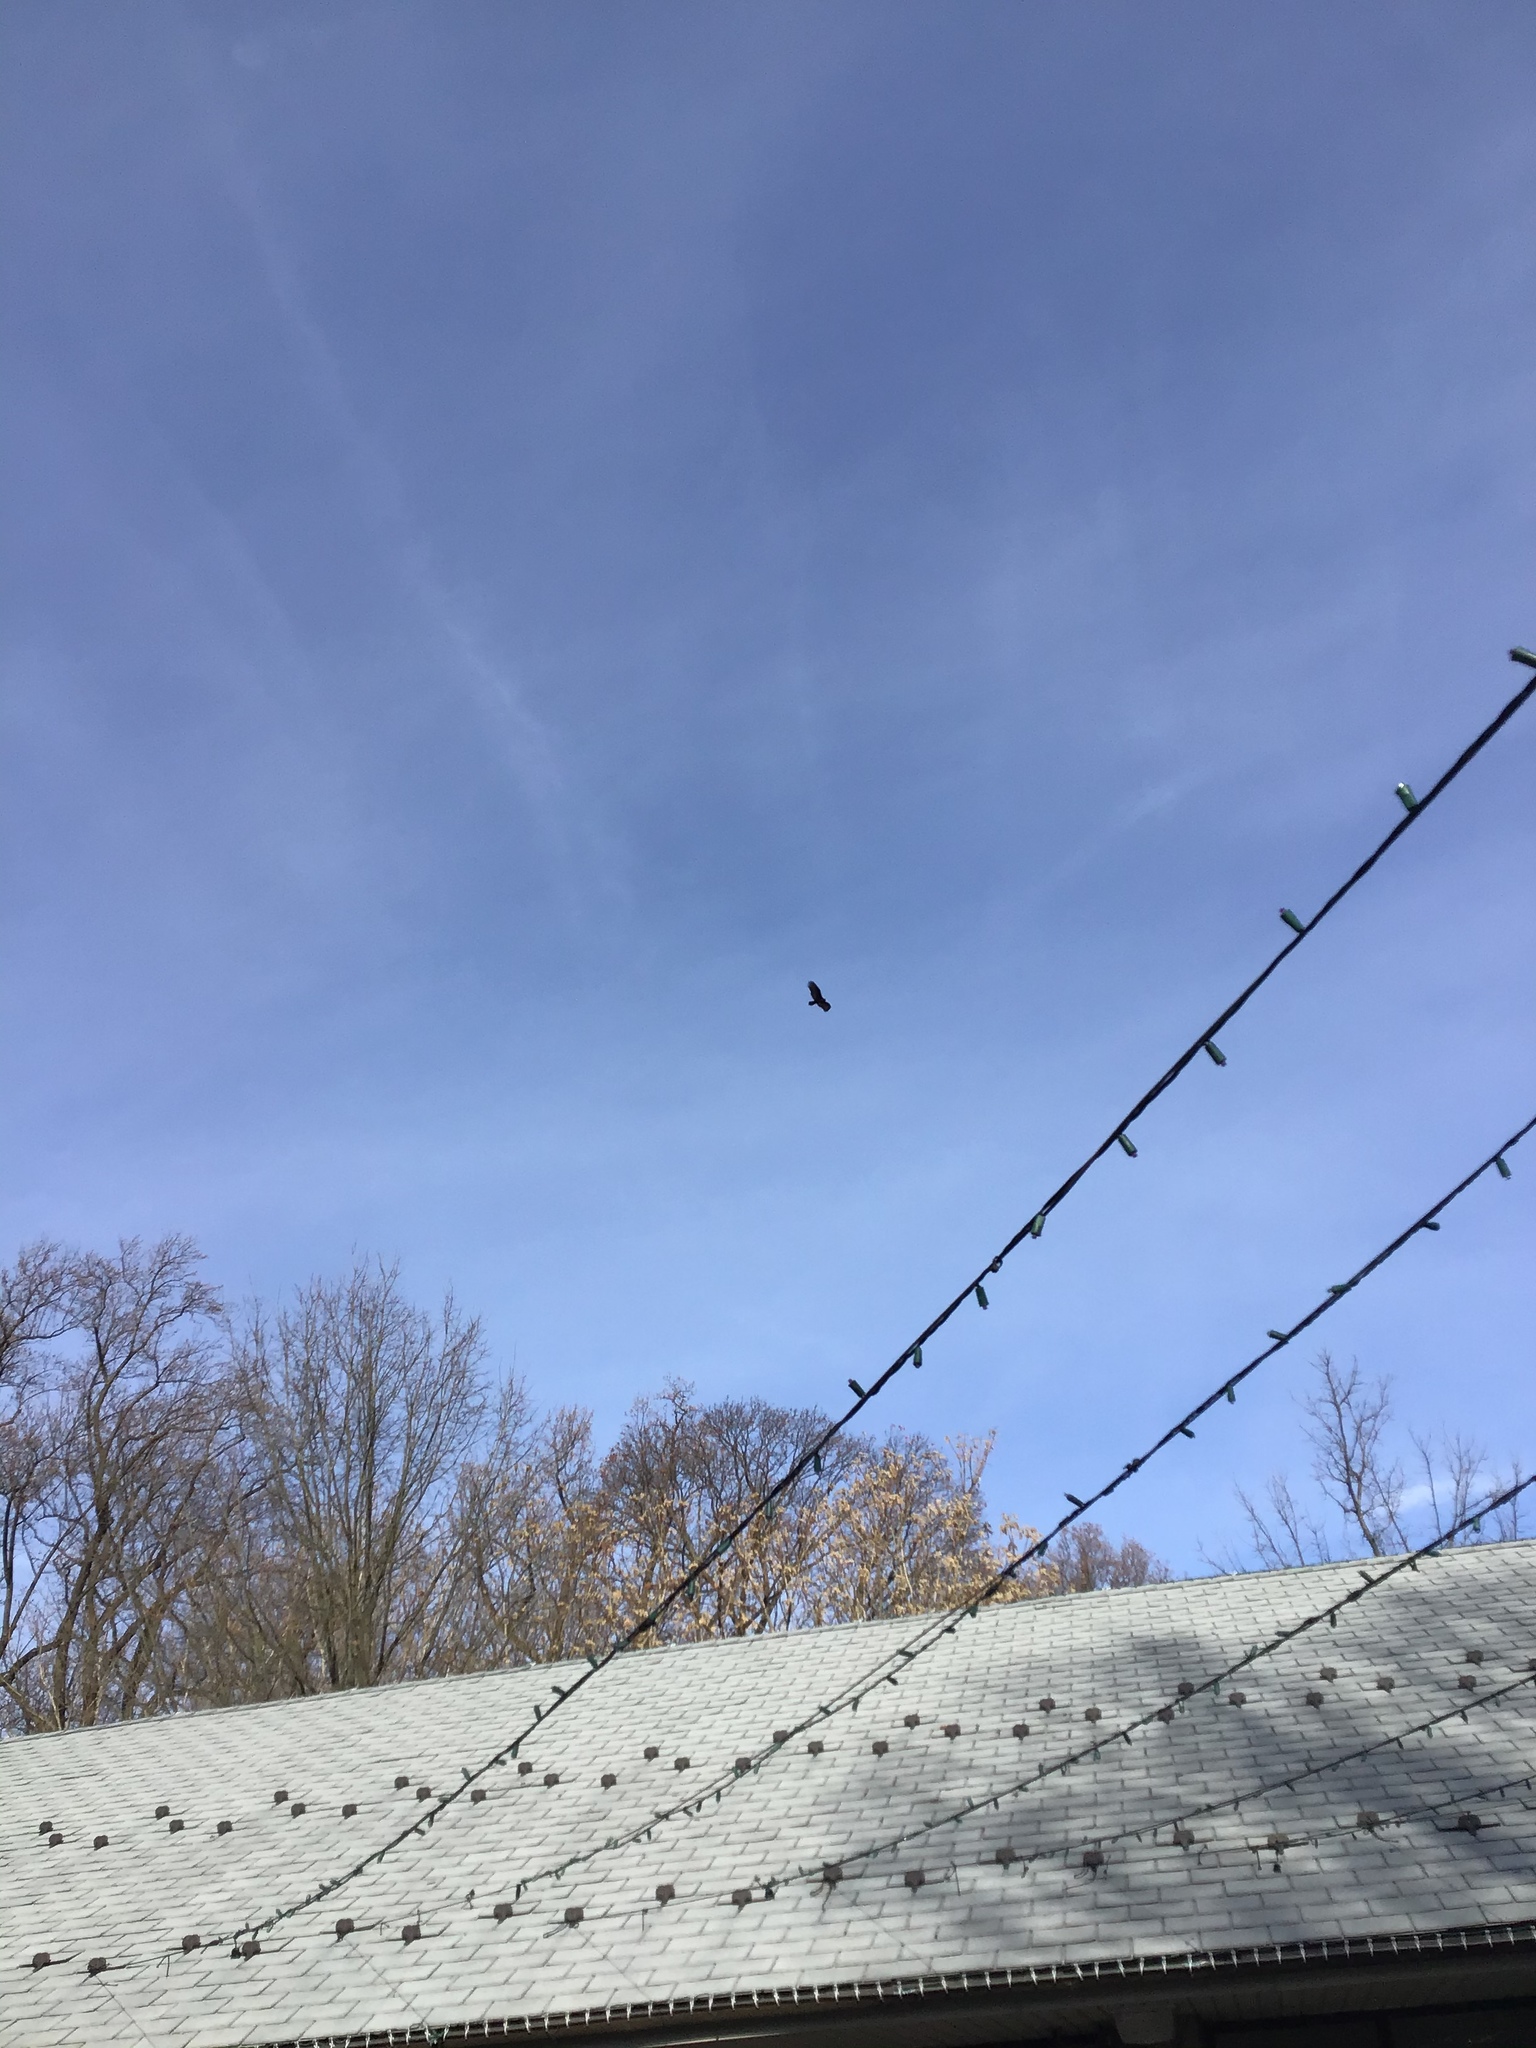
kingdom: Animalia
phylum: Chordata
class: Aves
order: Accipitriformes
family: Cathartidae
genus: Cathartes
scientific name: Cathartes aura
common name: Turkey vulture
